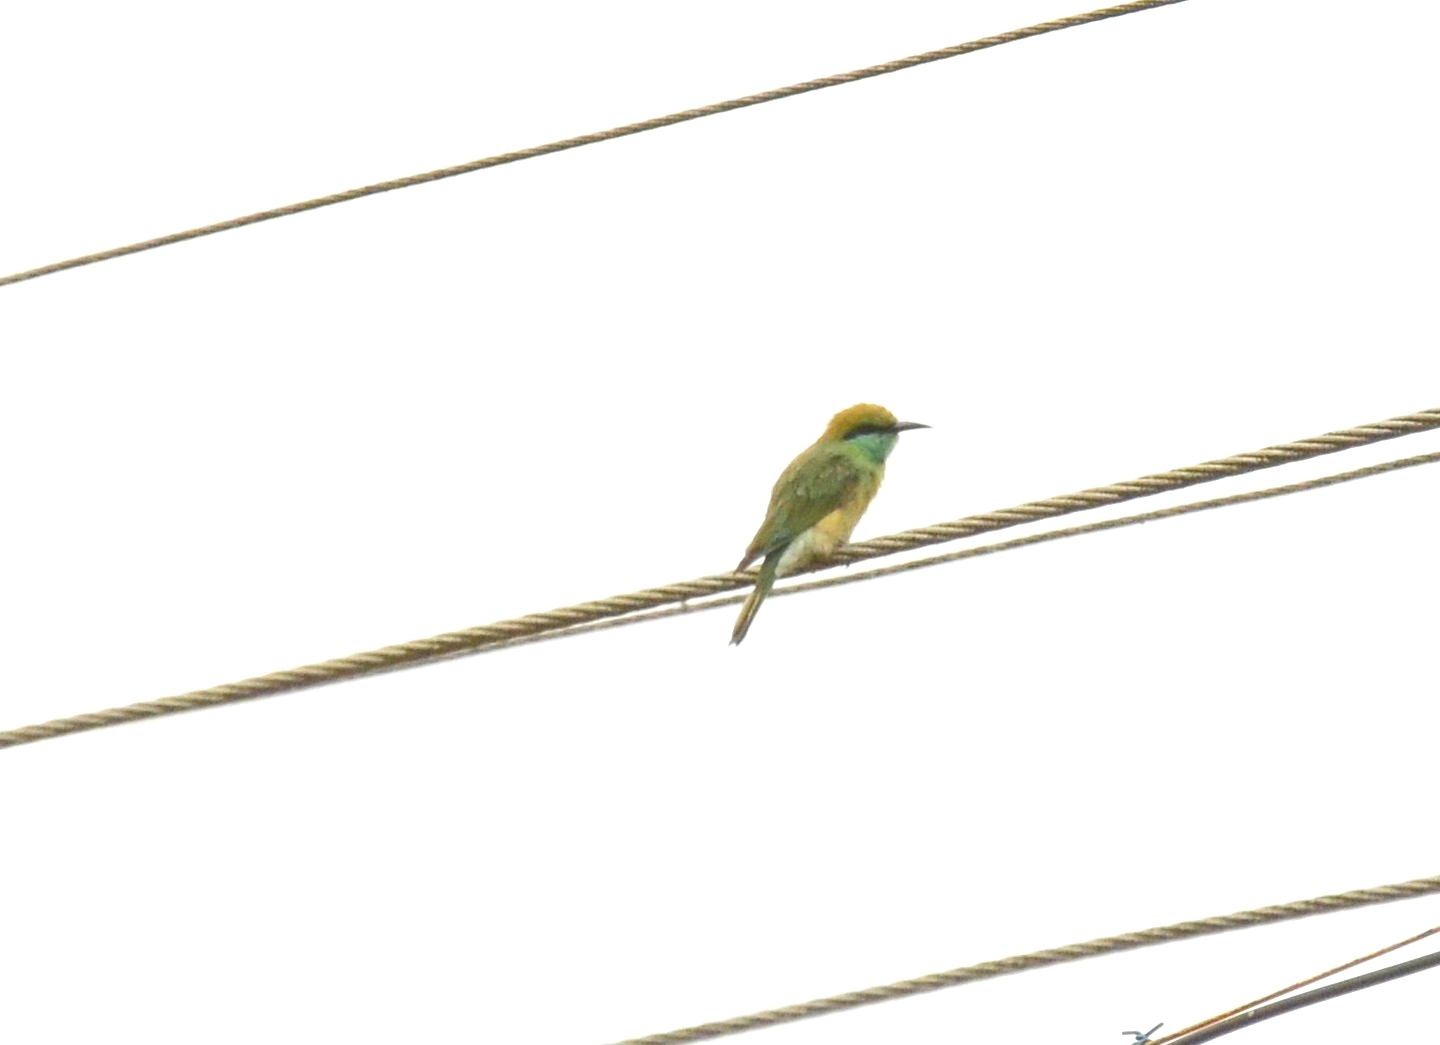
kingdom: Animalia
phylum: Chordata
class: Aves
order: Coraciiformes
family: Meropidae
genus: Merops
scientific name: Merops orientalis
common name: Green bee-eater
